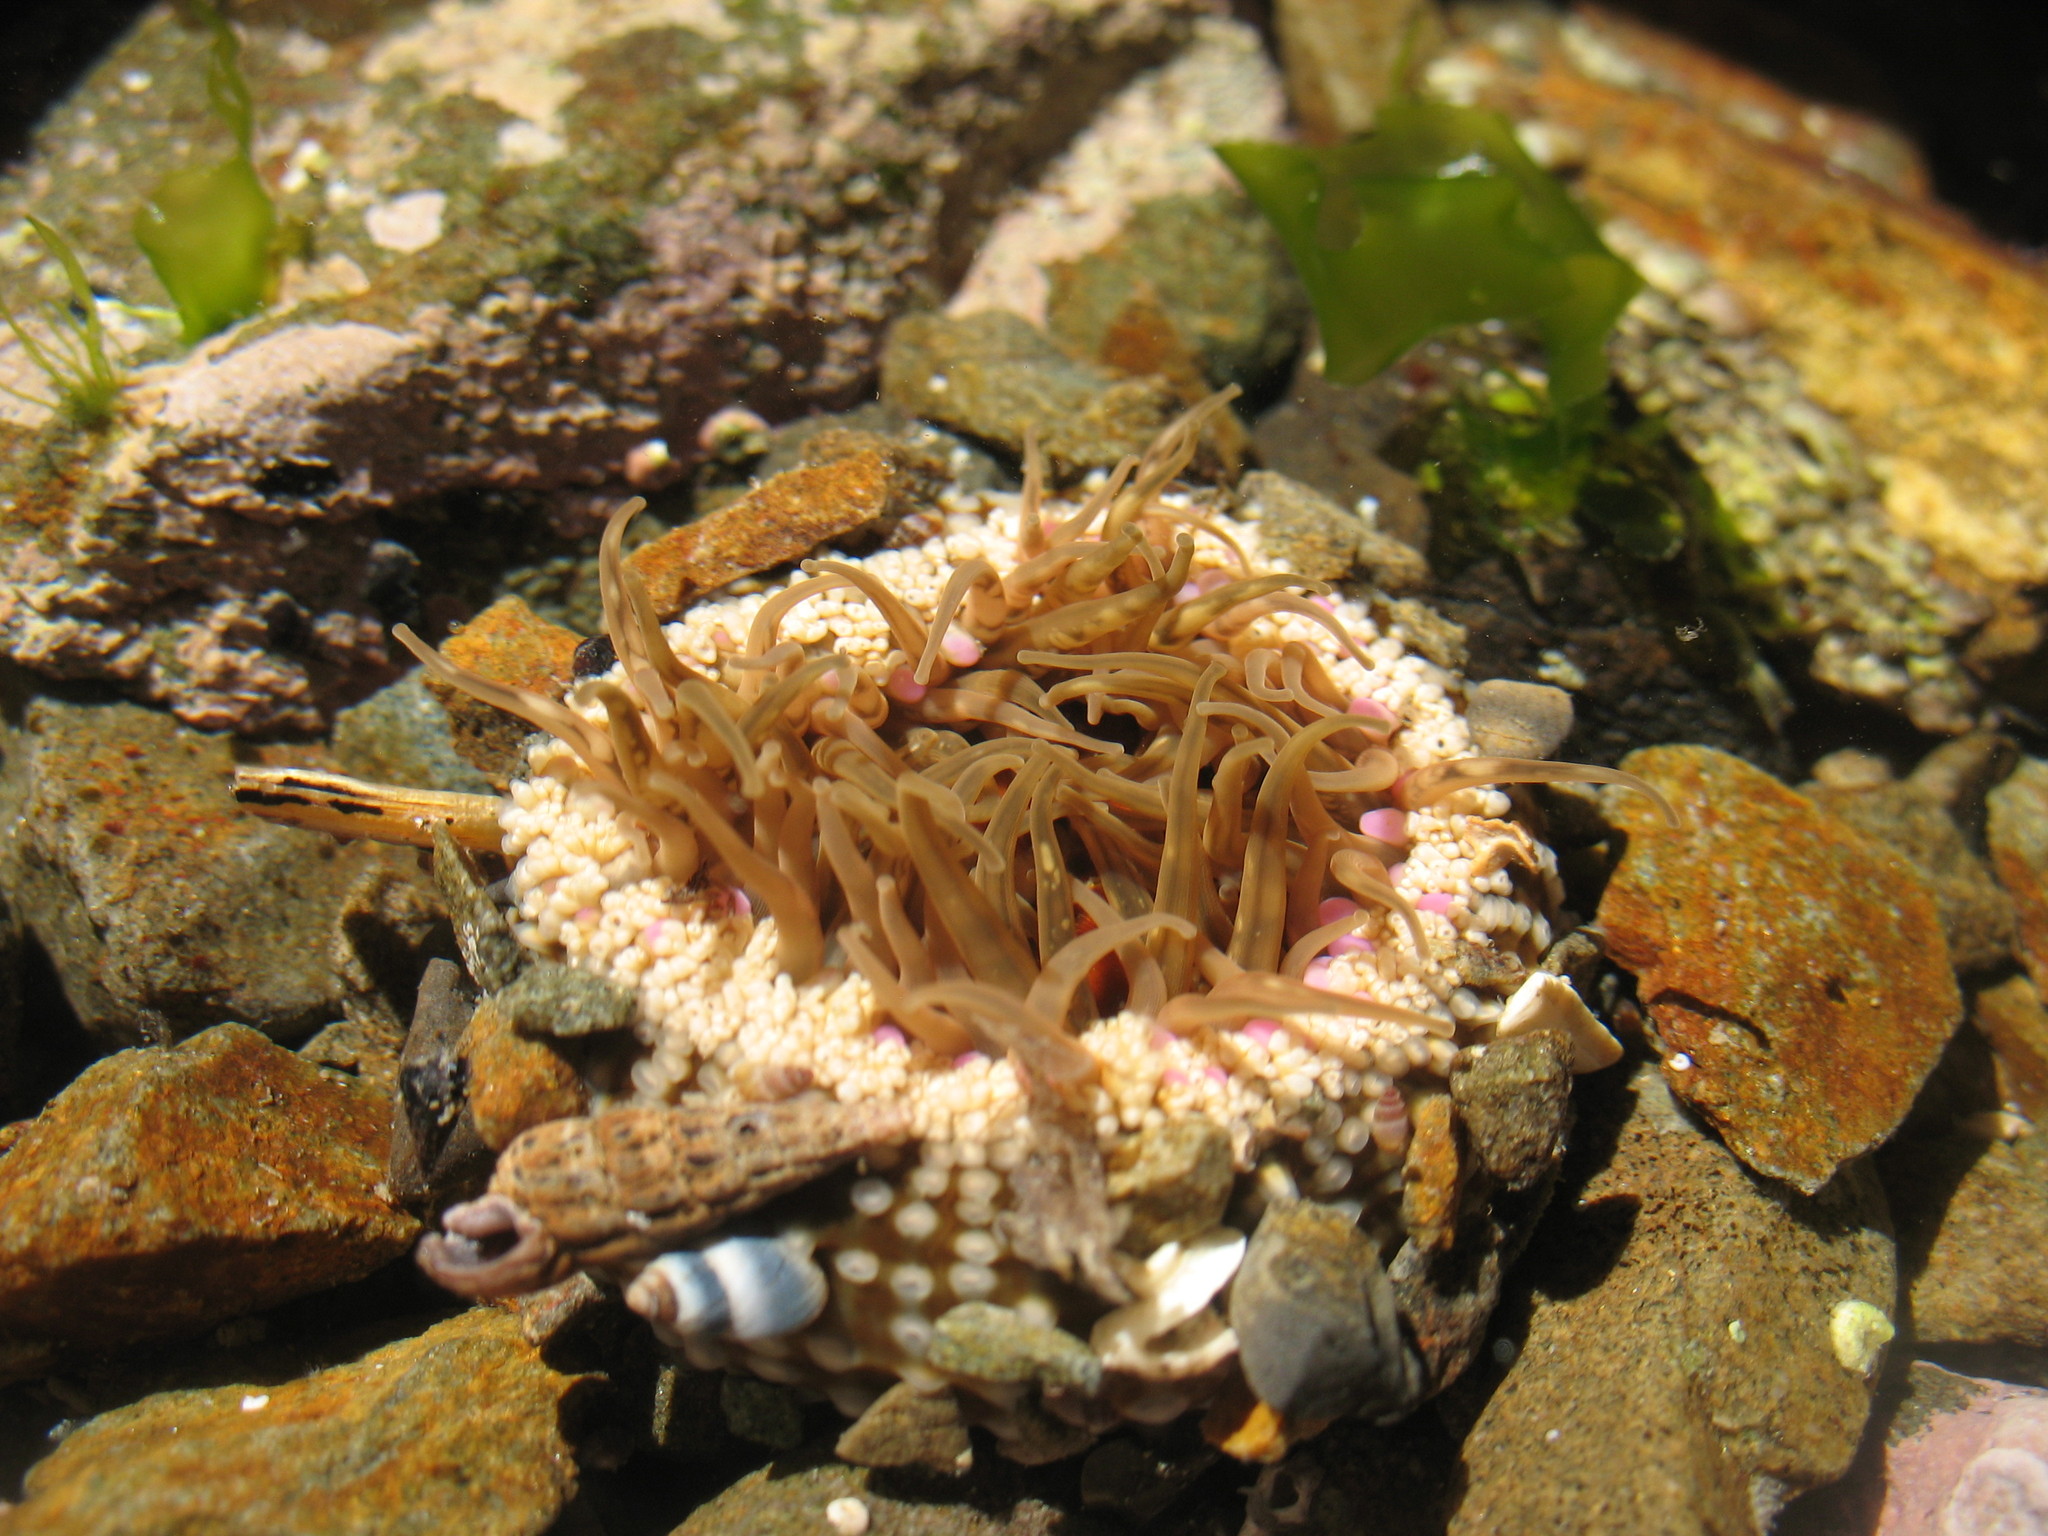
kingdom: Animalia
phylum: Cnidaria
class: Anthozoa
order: Actiniaria
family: Actiniidae
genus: Oulactis
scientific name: Oulactis muscosa
